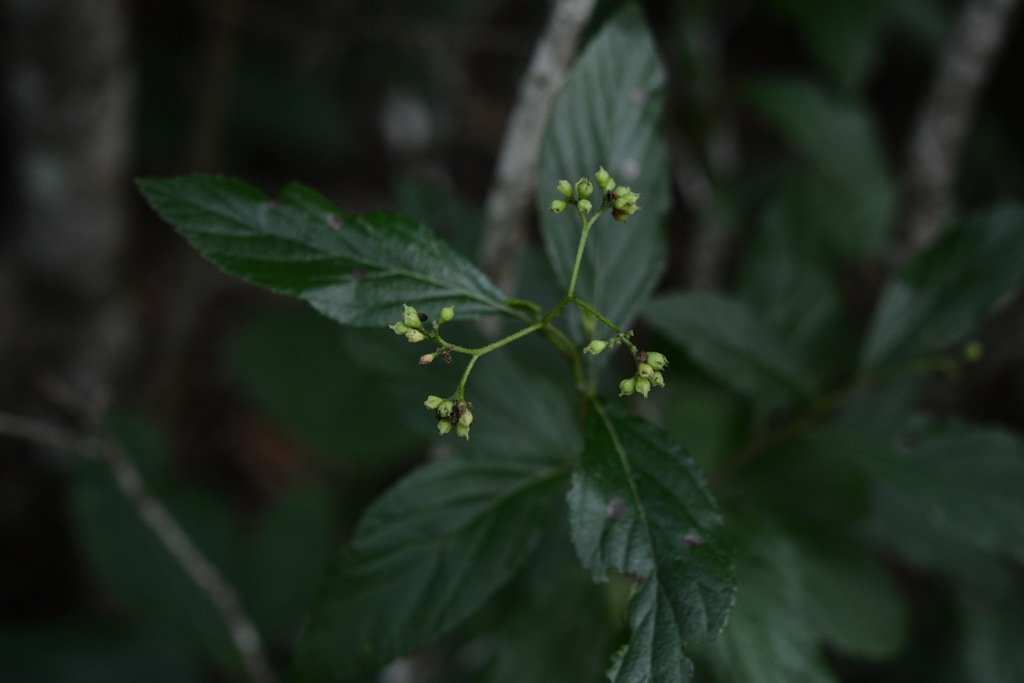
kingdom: Plantae
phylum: Tracheophyta
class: Magnoliopsida
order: Boraginales
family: Cordiaceae
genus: Varronia
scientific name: Varronia foliosa
